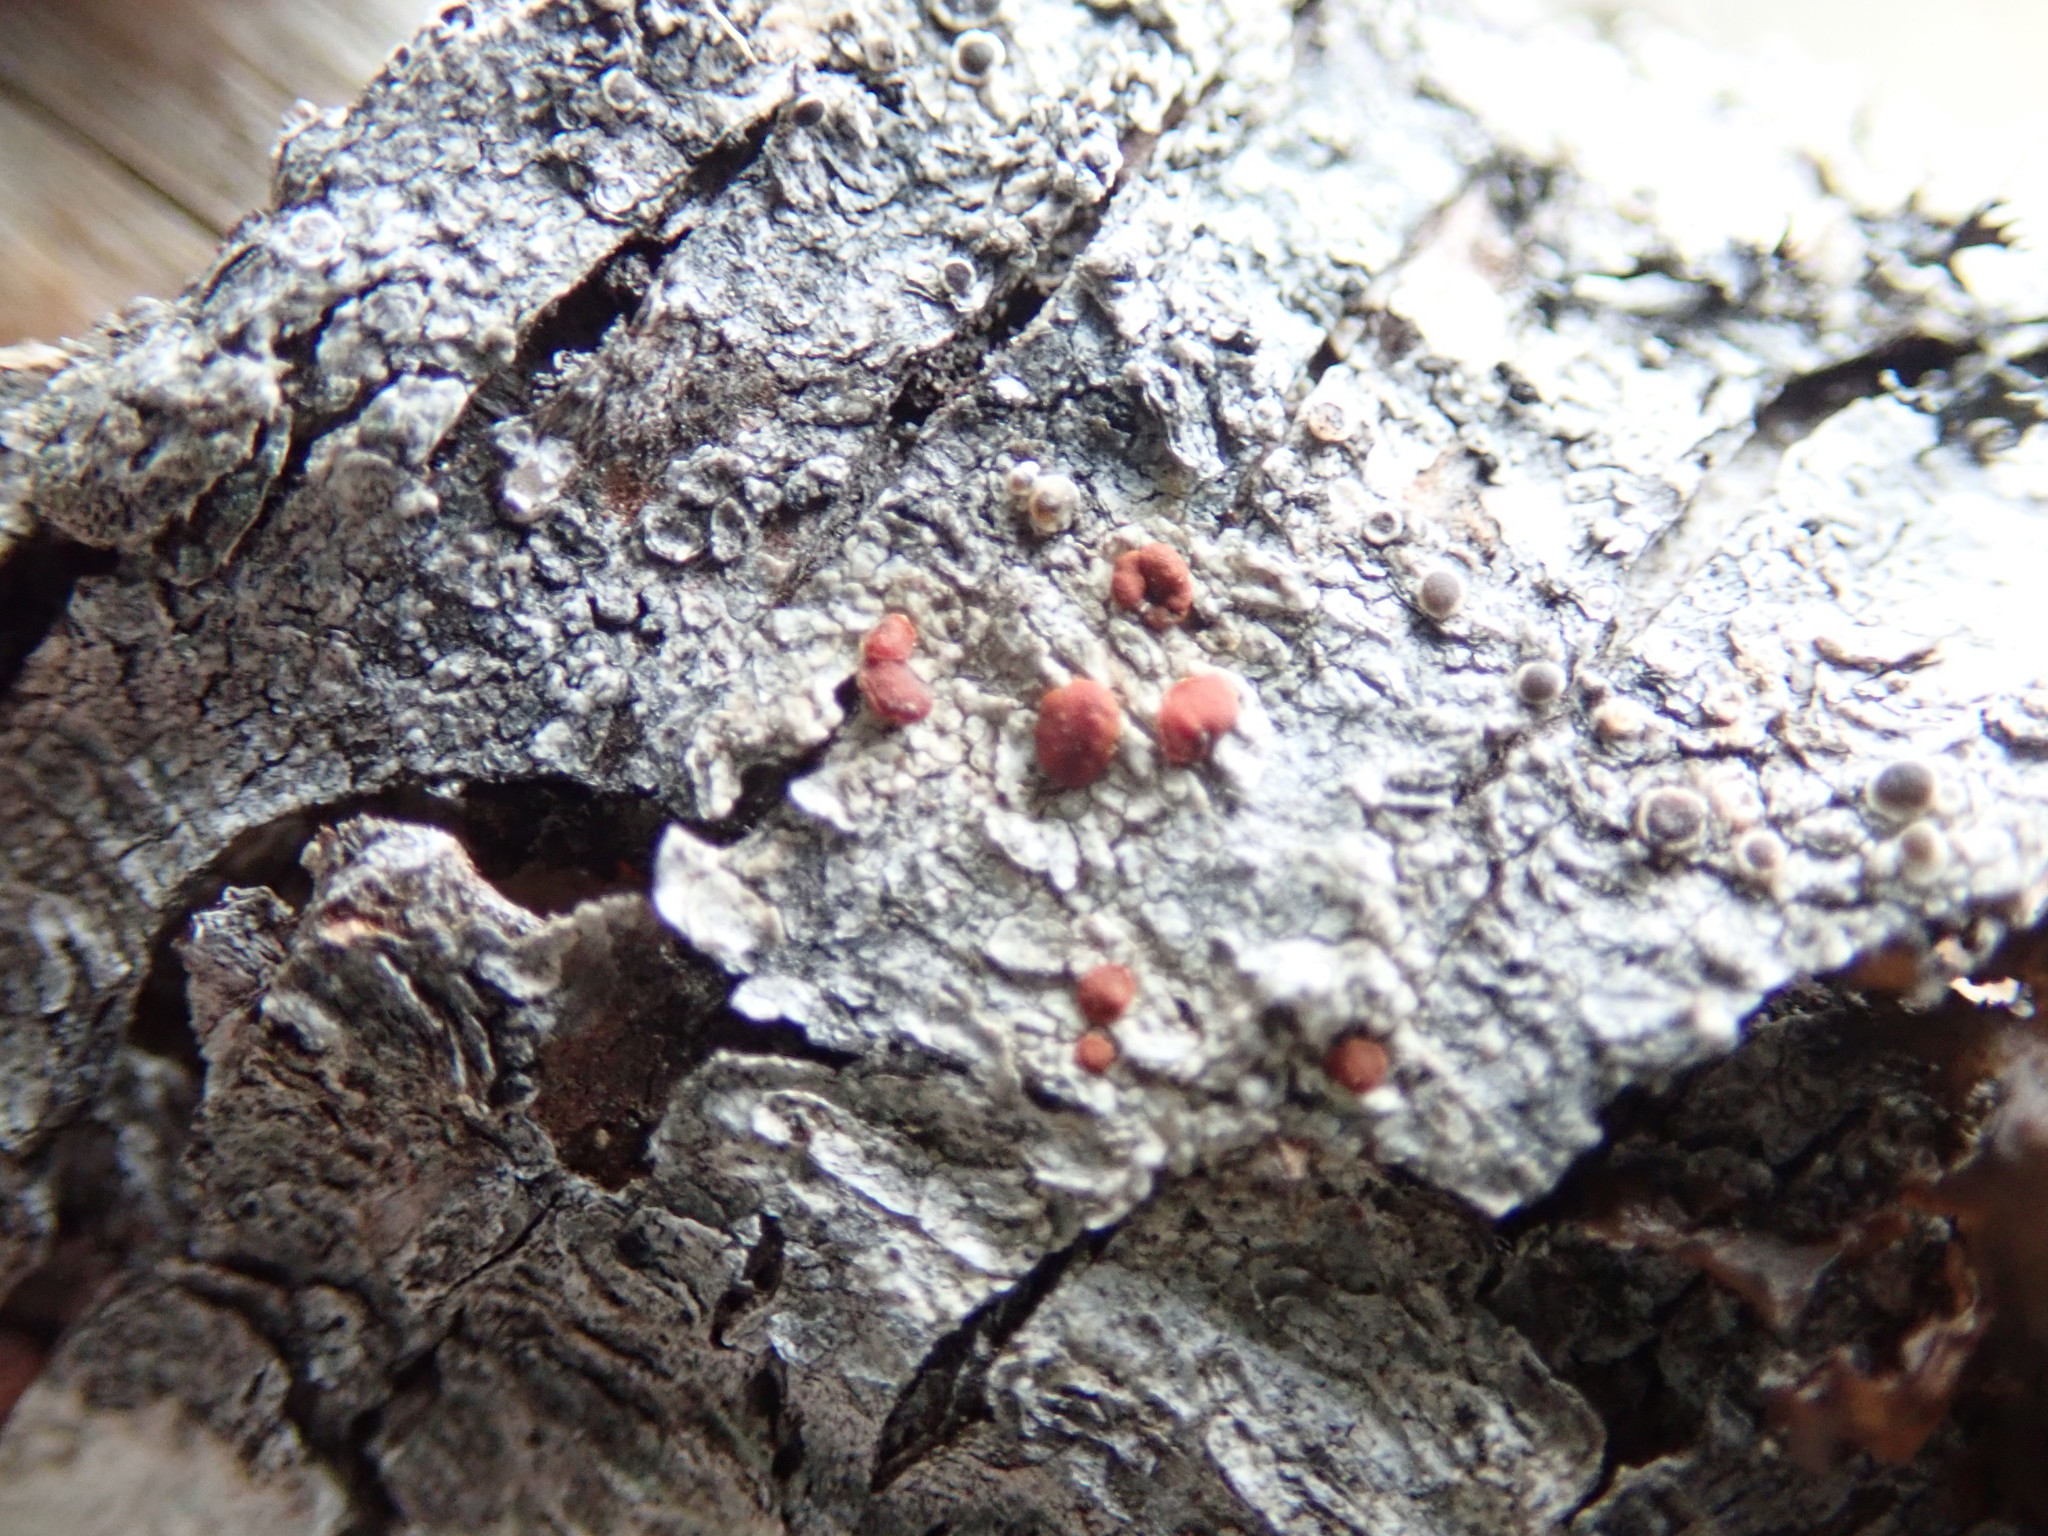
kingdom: Fungi
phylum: Ascomycota
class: Lecanoromycetes
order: Lecanorales
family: Ramboldiaceae
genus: Ramboldia
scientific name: Ramboldia gowardiana
